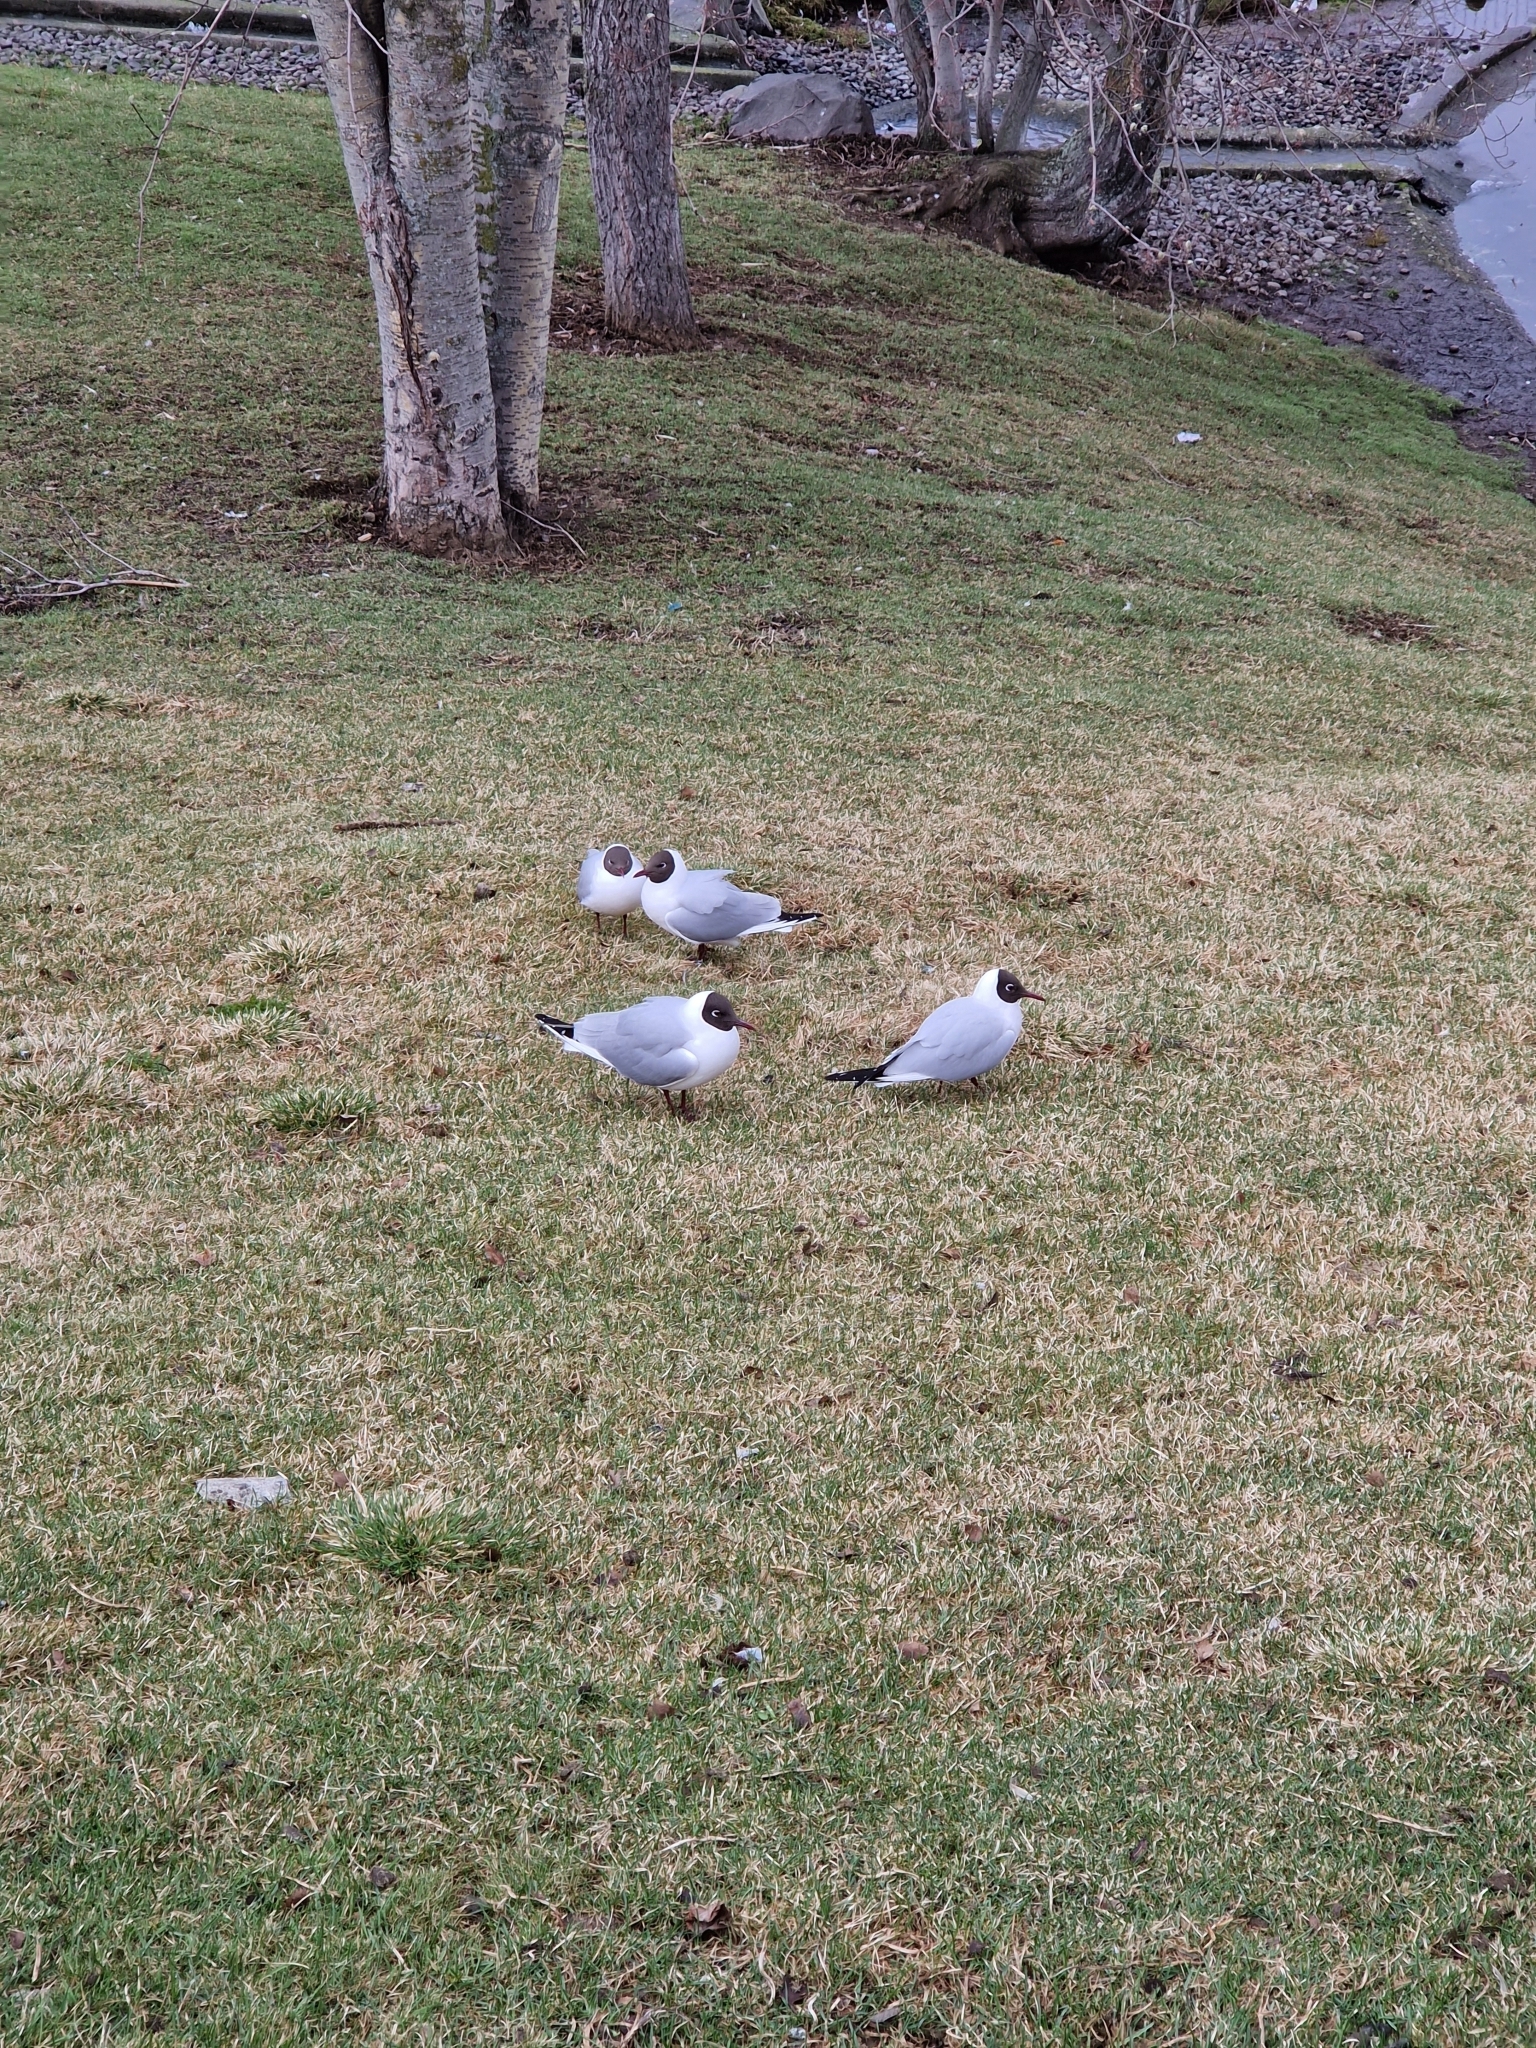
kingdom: Animalia
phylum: Chordata
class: Aves
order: Charadriiformes
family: Laridae
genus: Chroicocephalus
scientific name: Chroicocephalus ridibundus
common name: Black-headed gull
